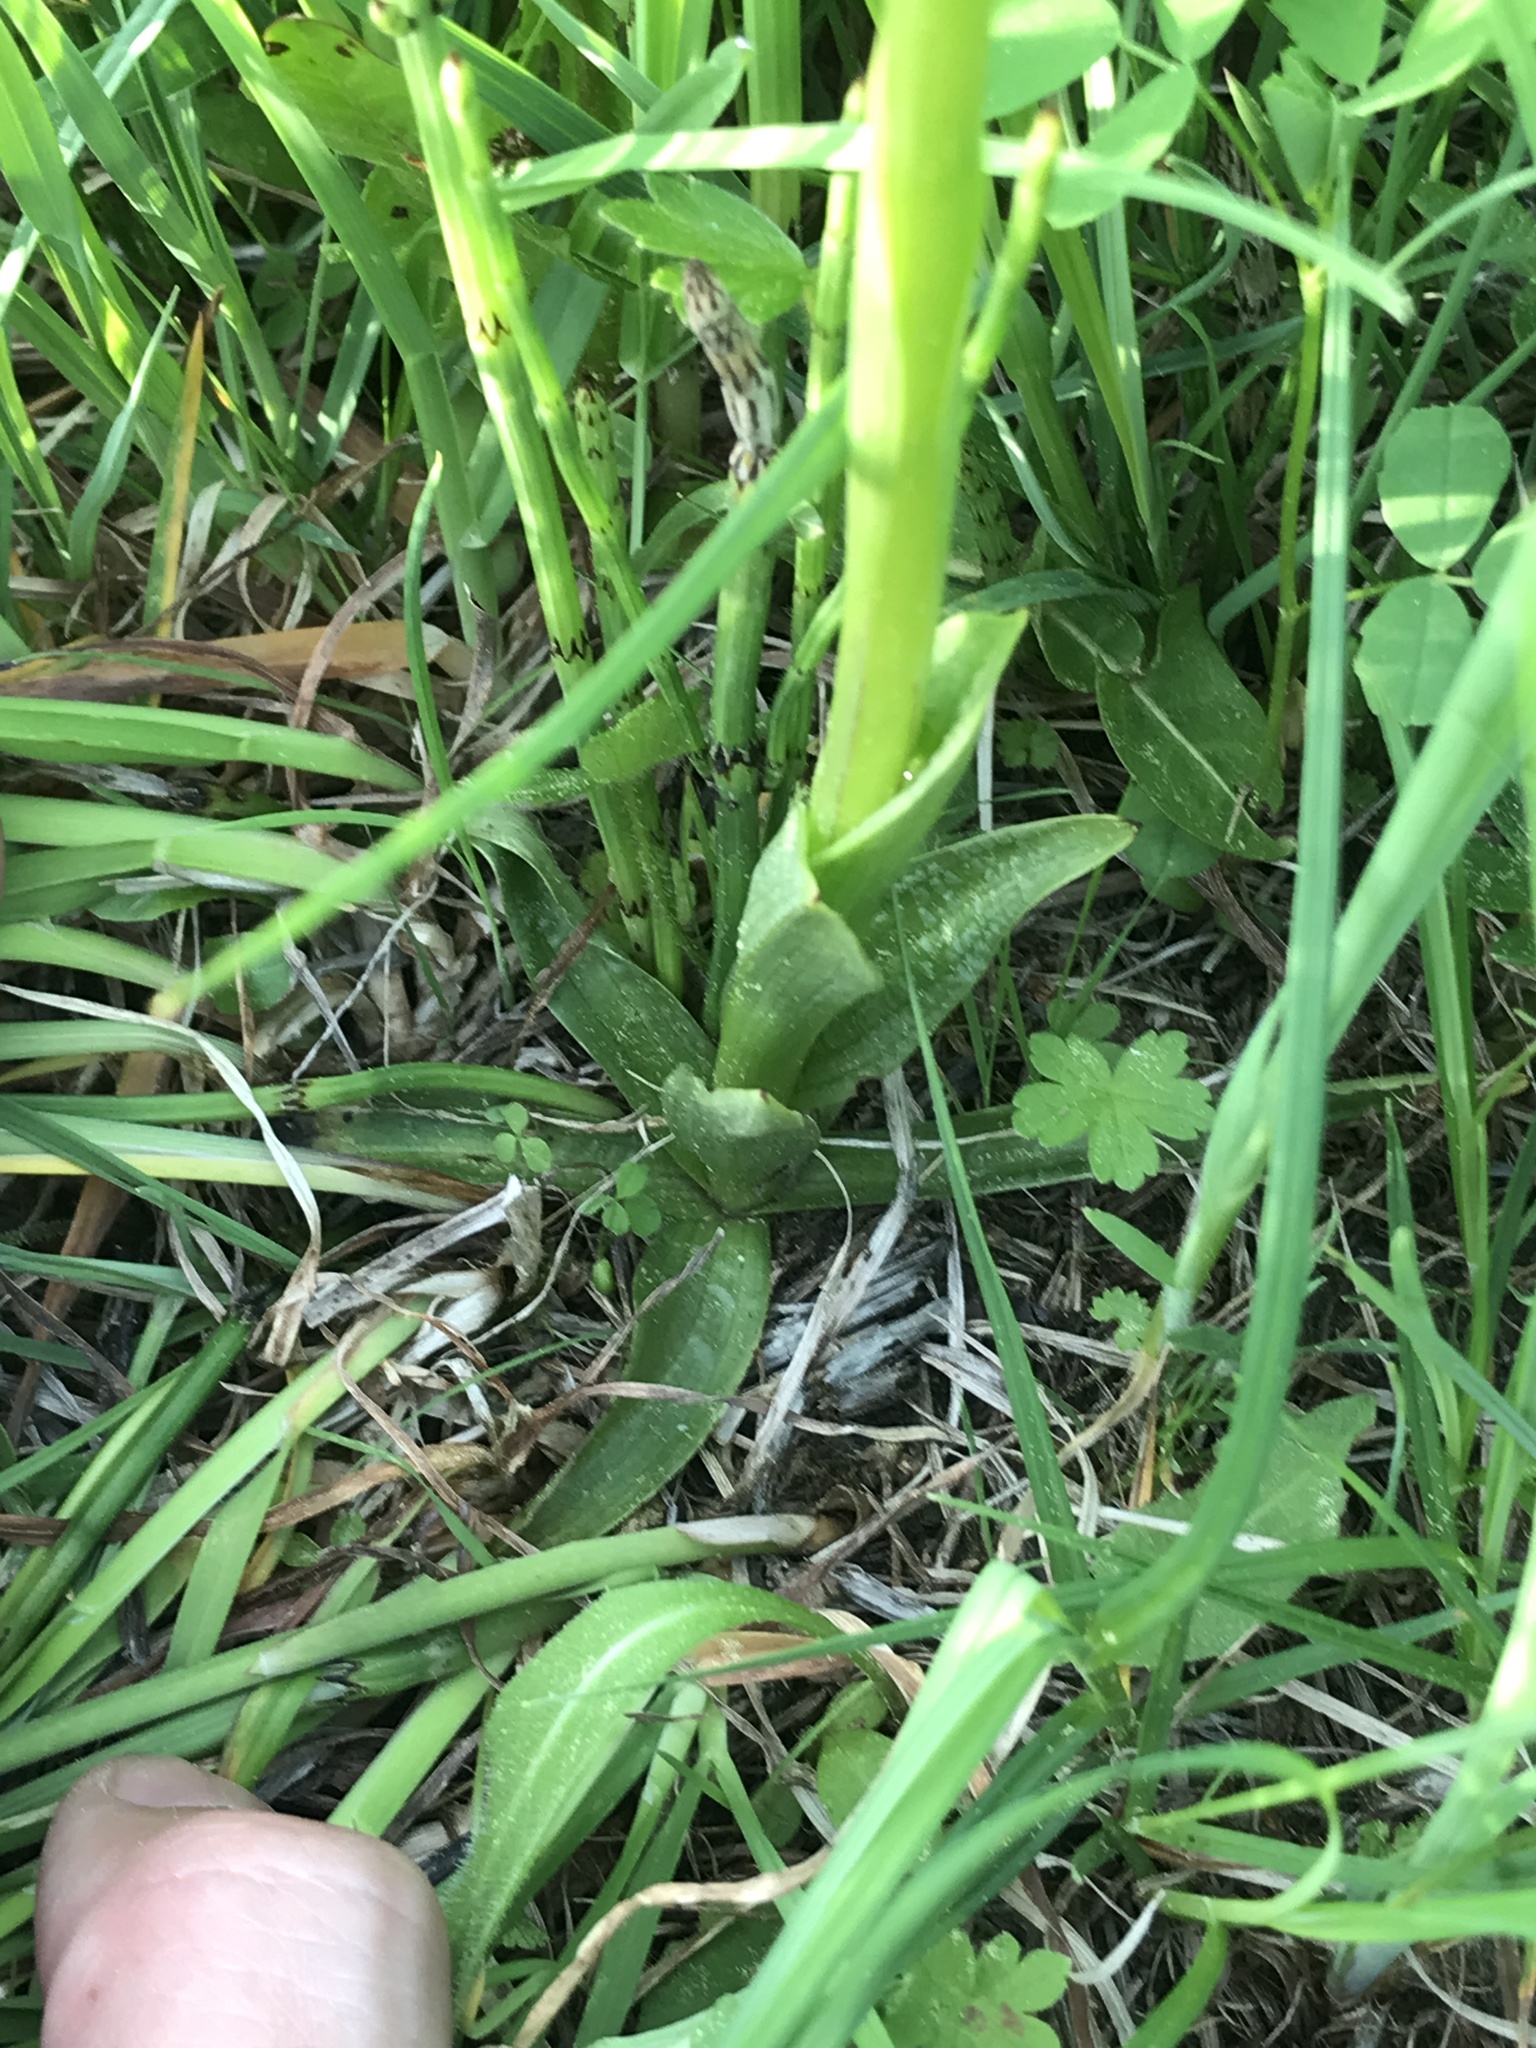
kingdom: Plantae
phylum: Tracheophyta
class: Liliopsida
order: Asparagales
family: Orchidaceae
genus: Anacamptis
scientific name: Anacamptis morio
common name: Green-winged orchid
